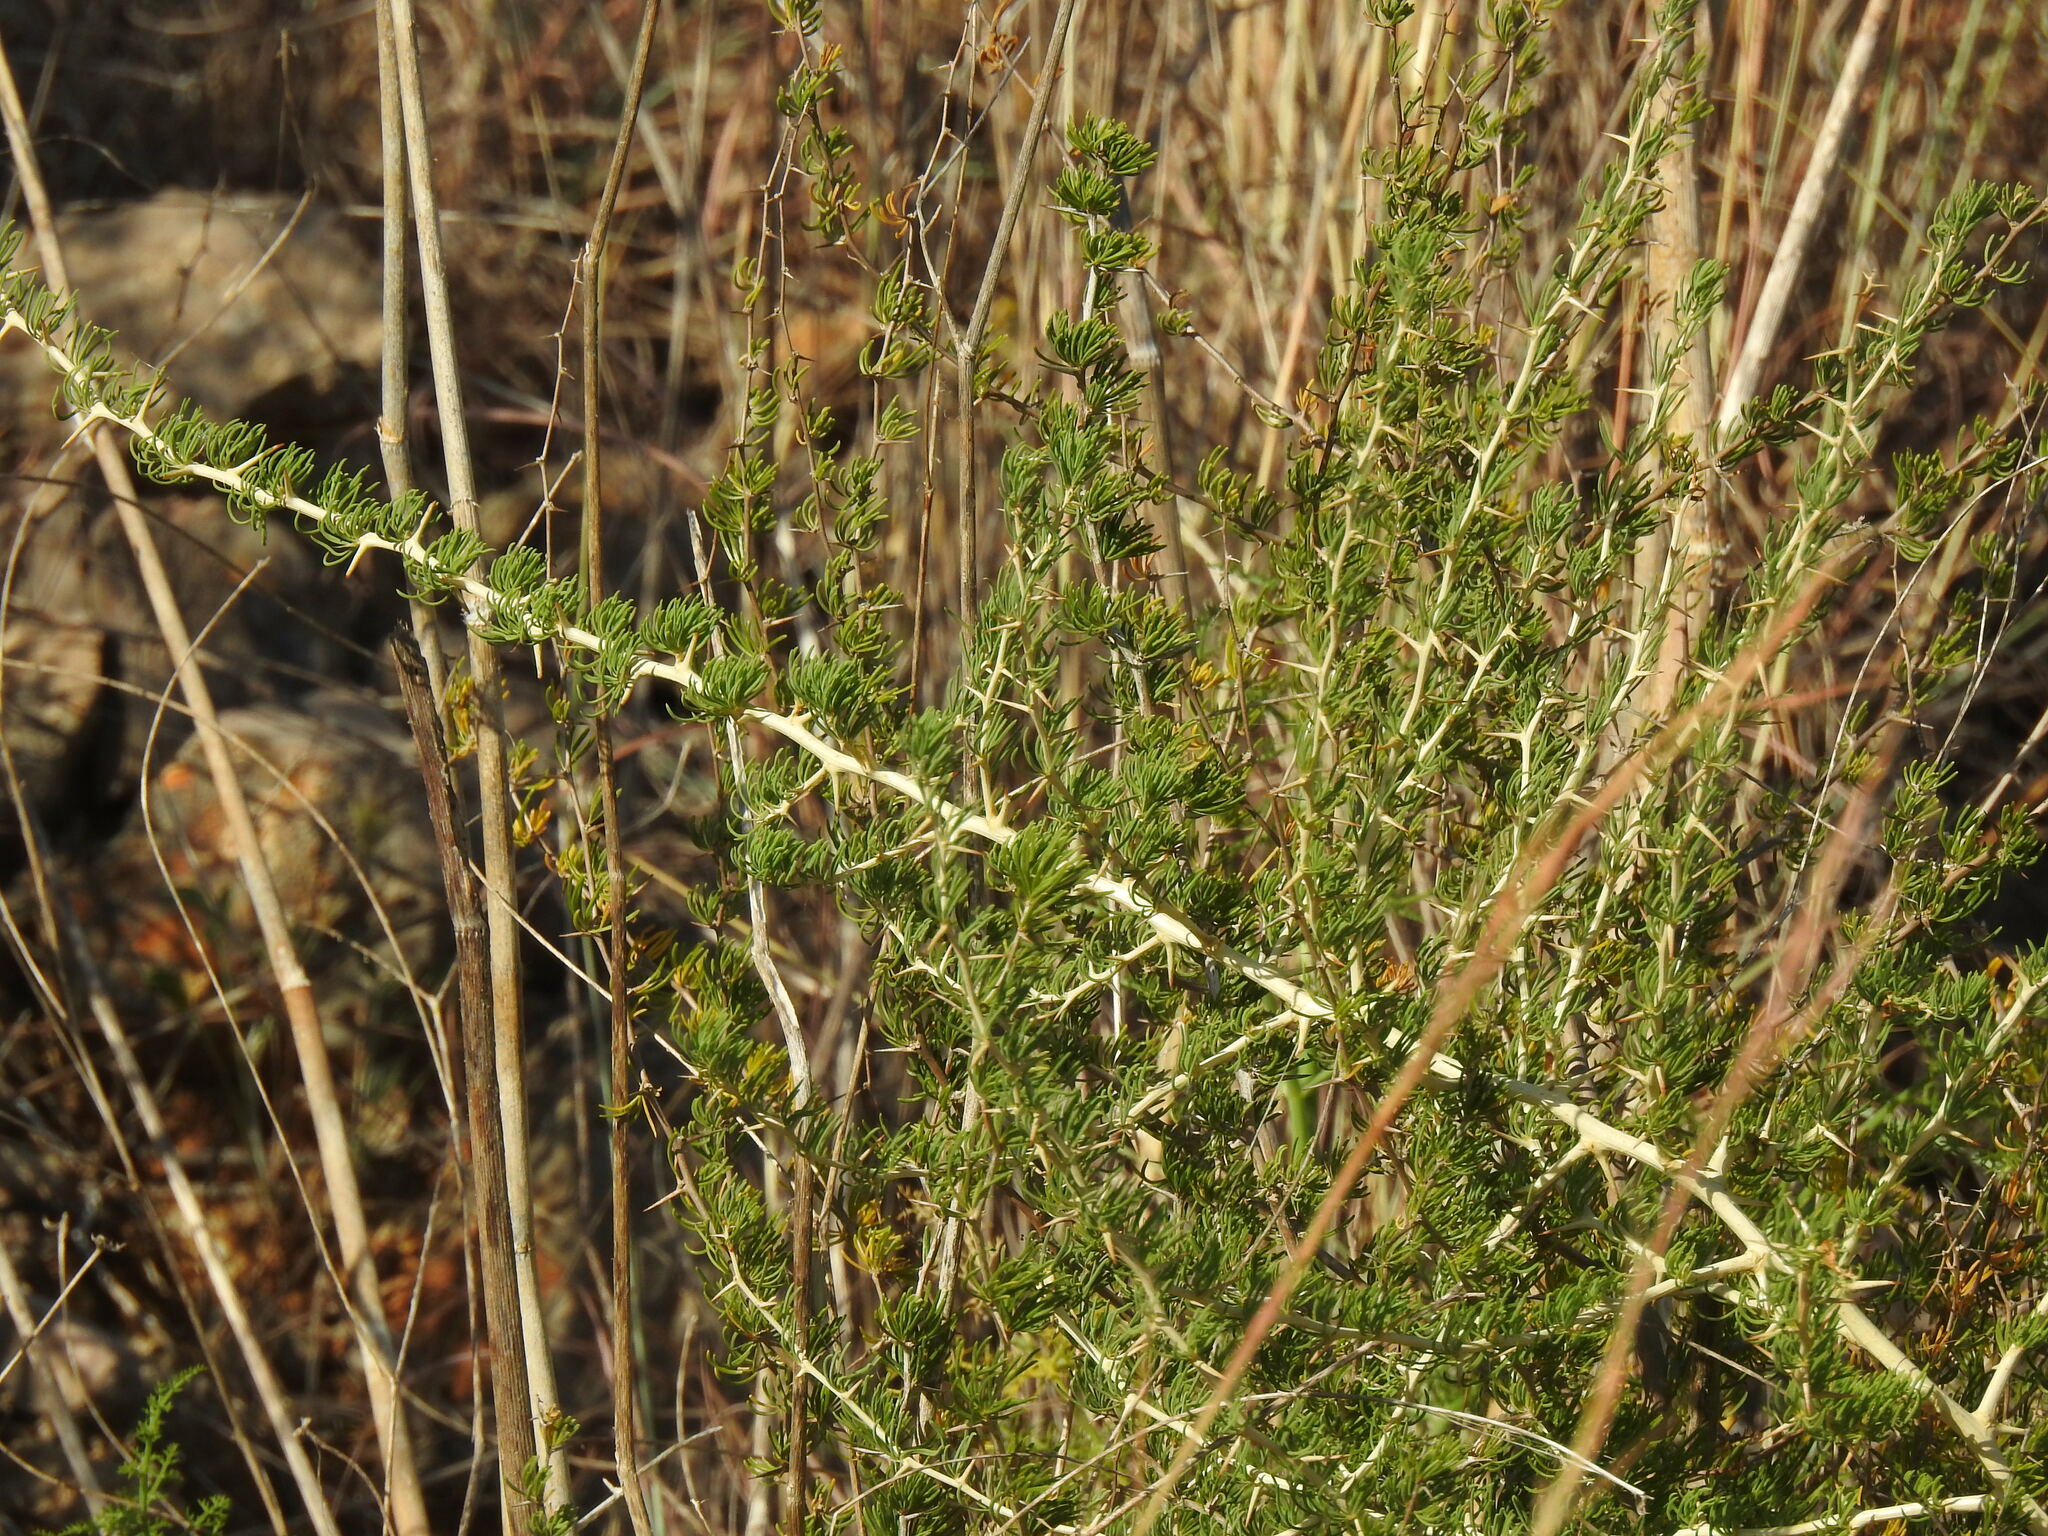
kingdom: Plantae
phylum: Tracheophyta
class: Liliopsida
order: Asparagales
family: Asparagaceae
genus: Asparagus
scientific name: Asparagus albus
